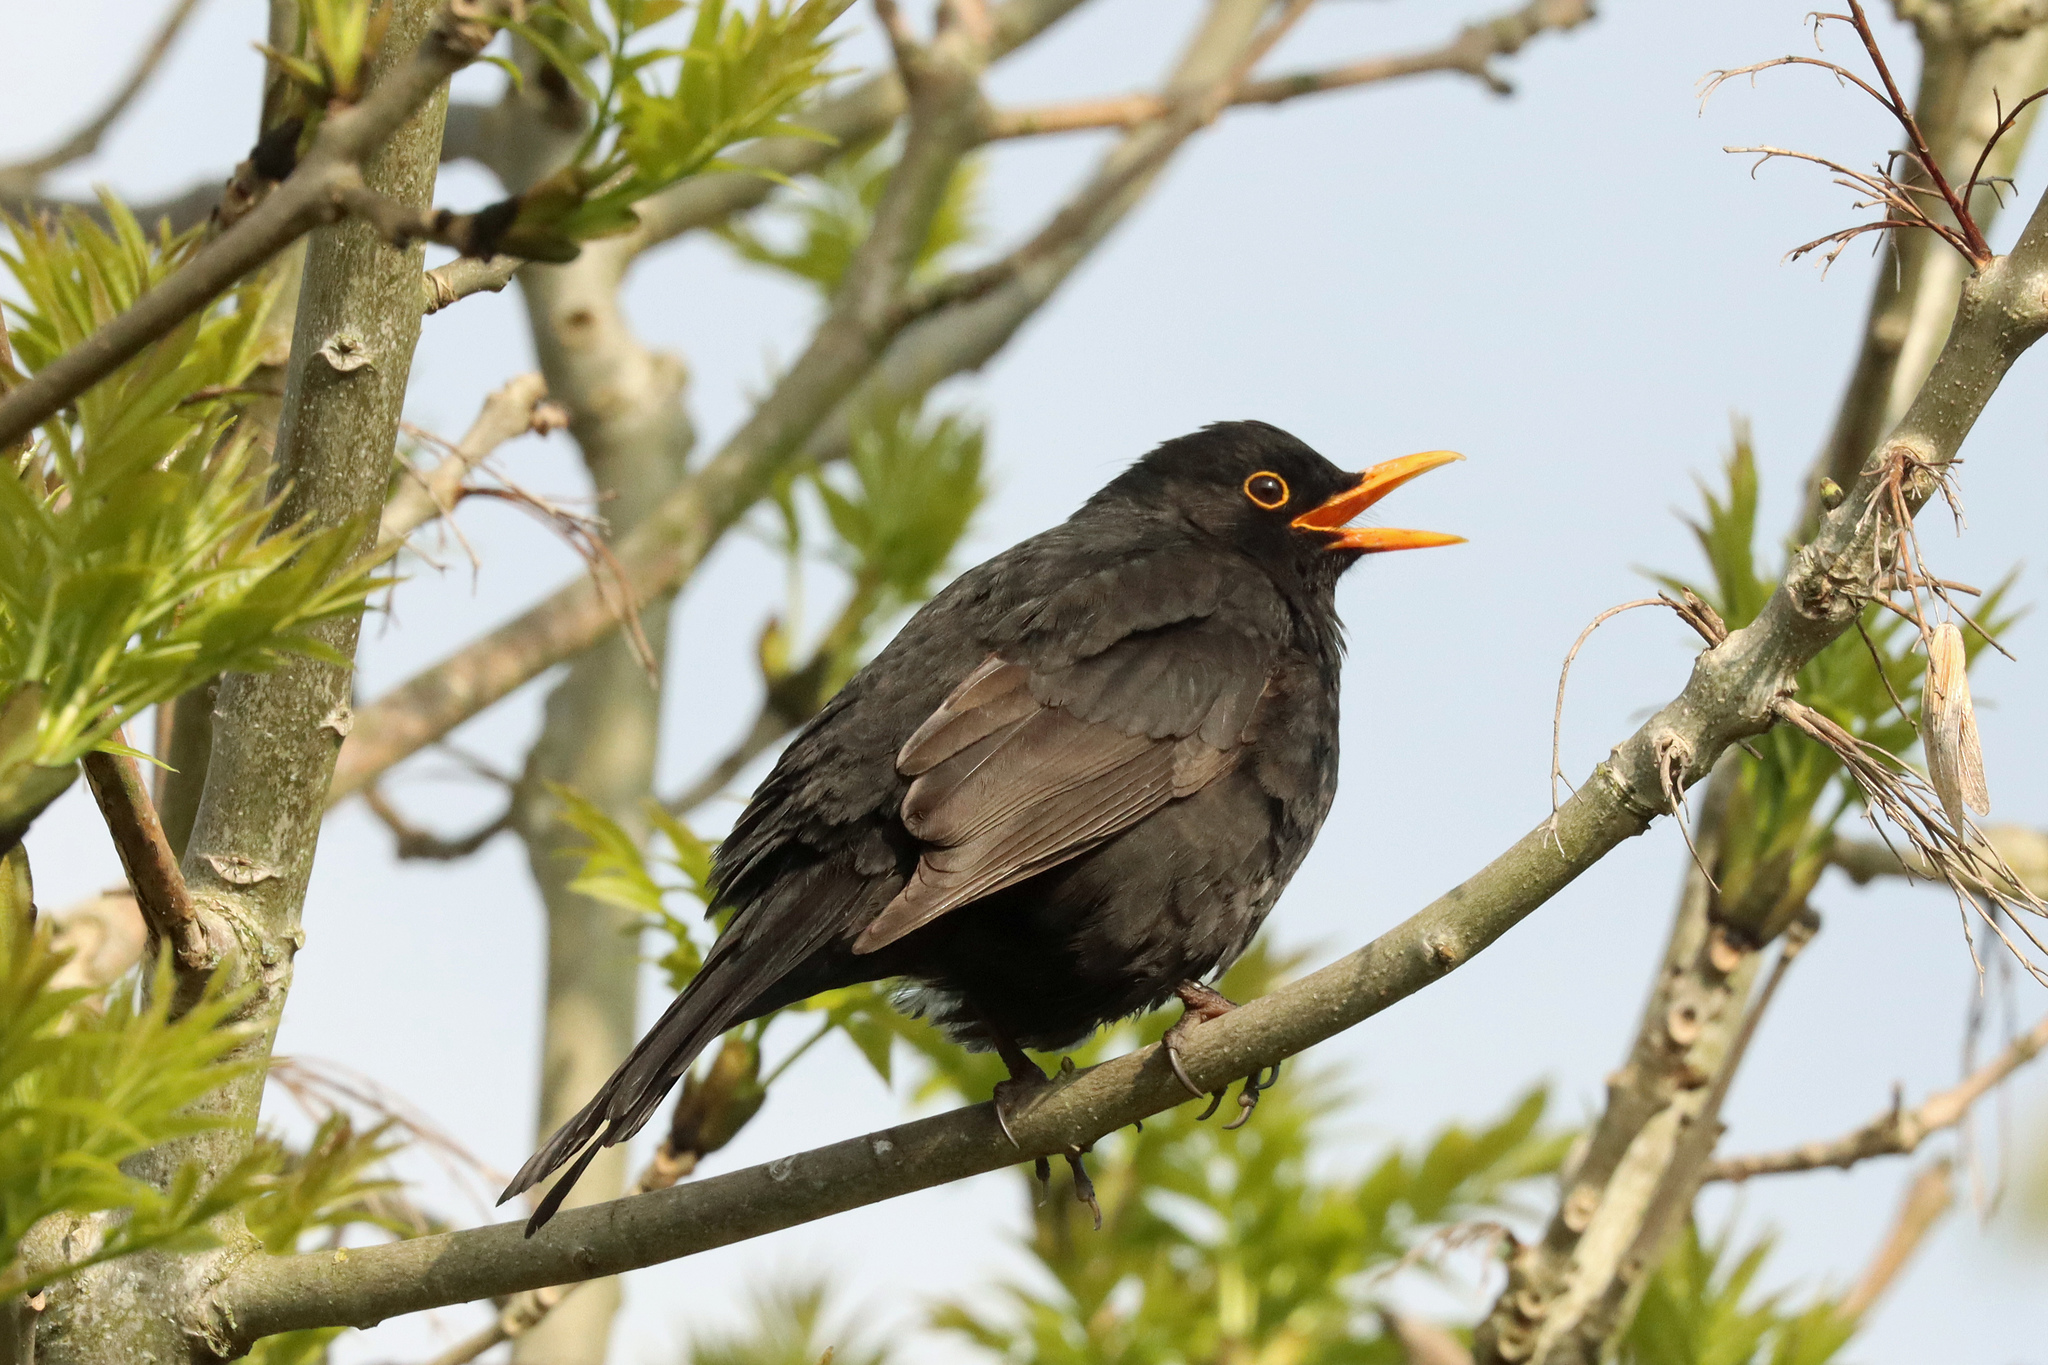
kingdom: Animalia
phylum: Chordata
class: Aves
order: Passeriformes
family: Turdidae
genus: Turdus
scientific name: Turdus merula
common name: Common blackbird
